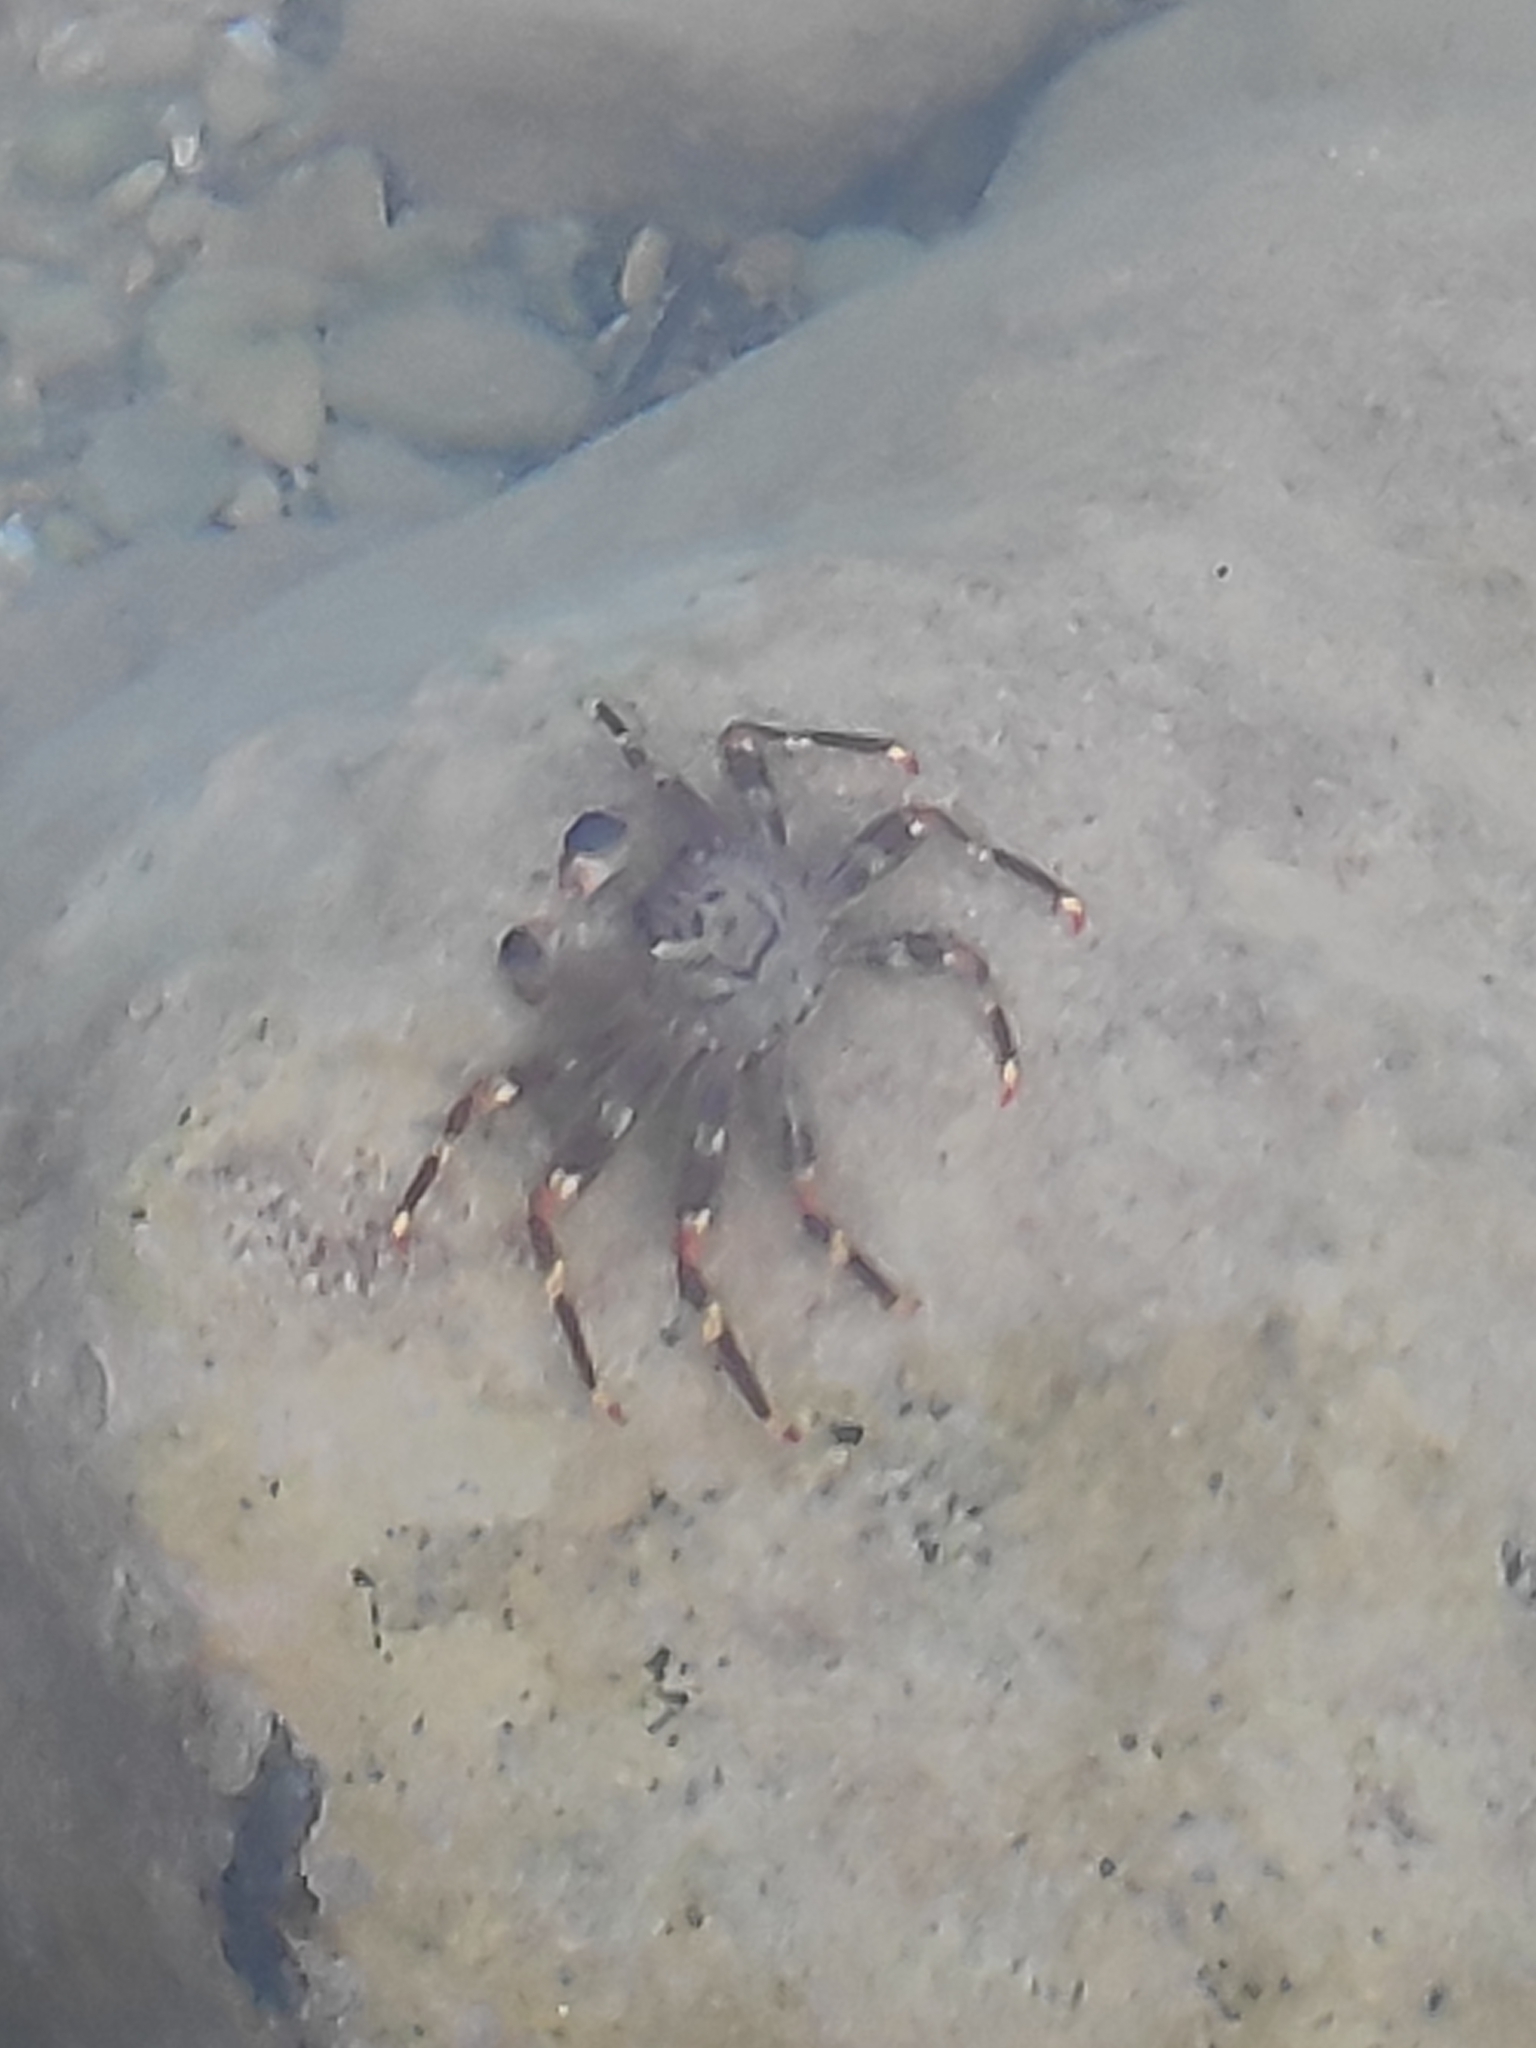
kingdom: Animalia
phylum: Arthropoda
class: Malacostraca
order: Decapoda
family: Percnidae
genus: Percnon
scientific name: Percnon gibbesi
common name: Nimble spray crab
